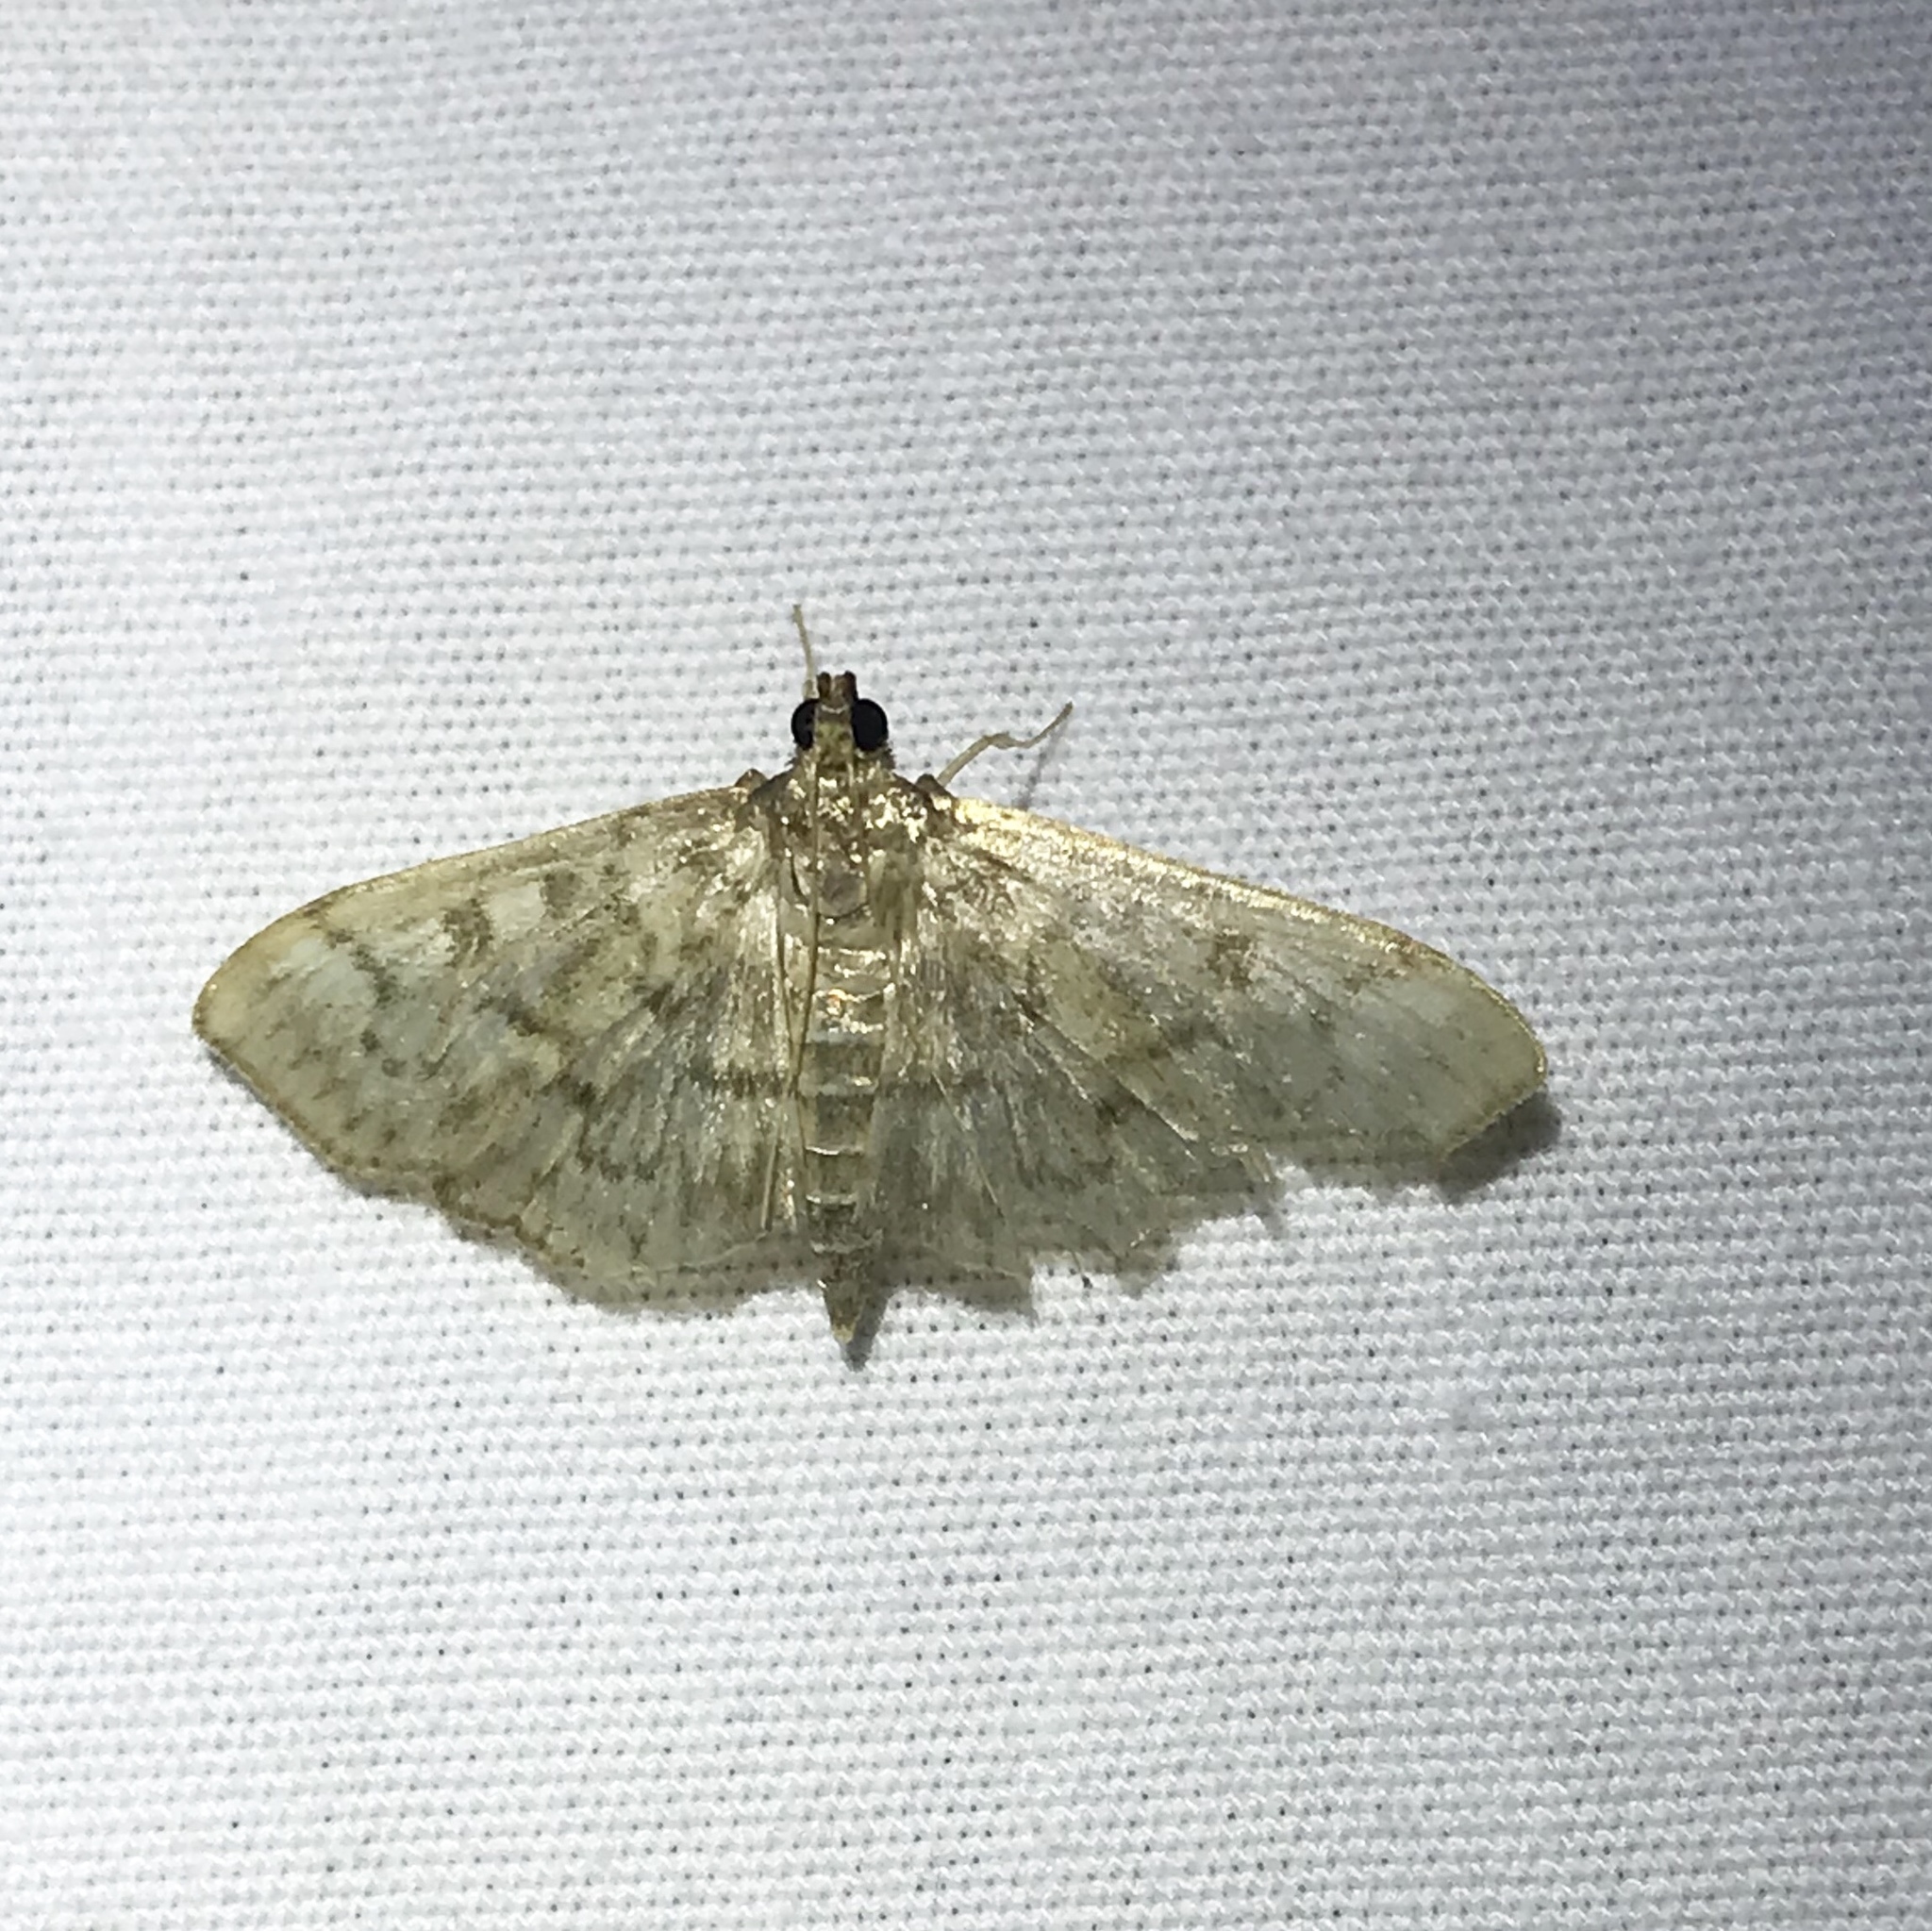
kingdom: Animalia
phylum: Arthropoda
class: Insecta
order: Lepidoptera
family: Crambidae
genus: Herpetogramma
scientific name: Herpetogramma
